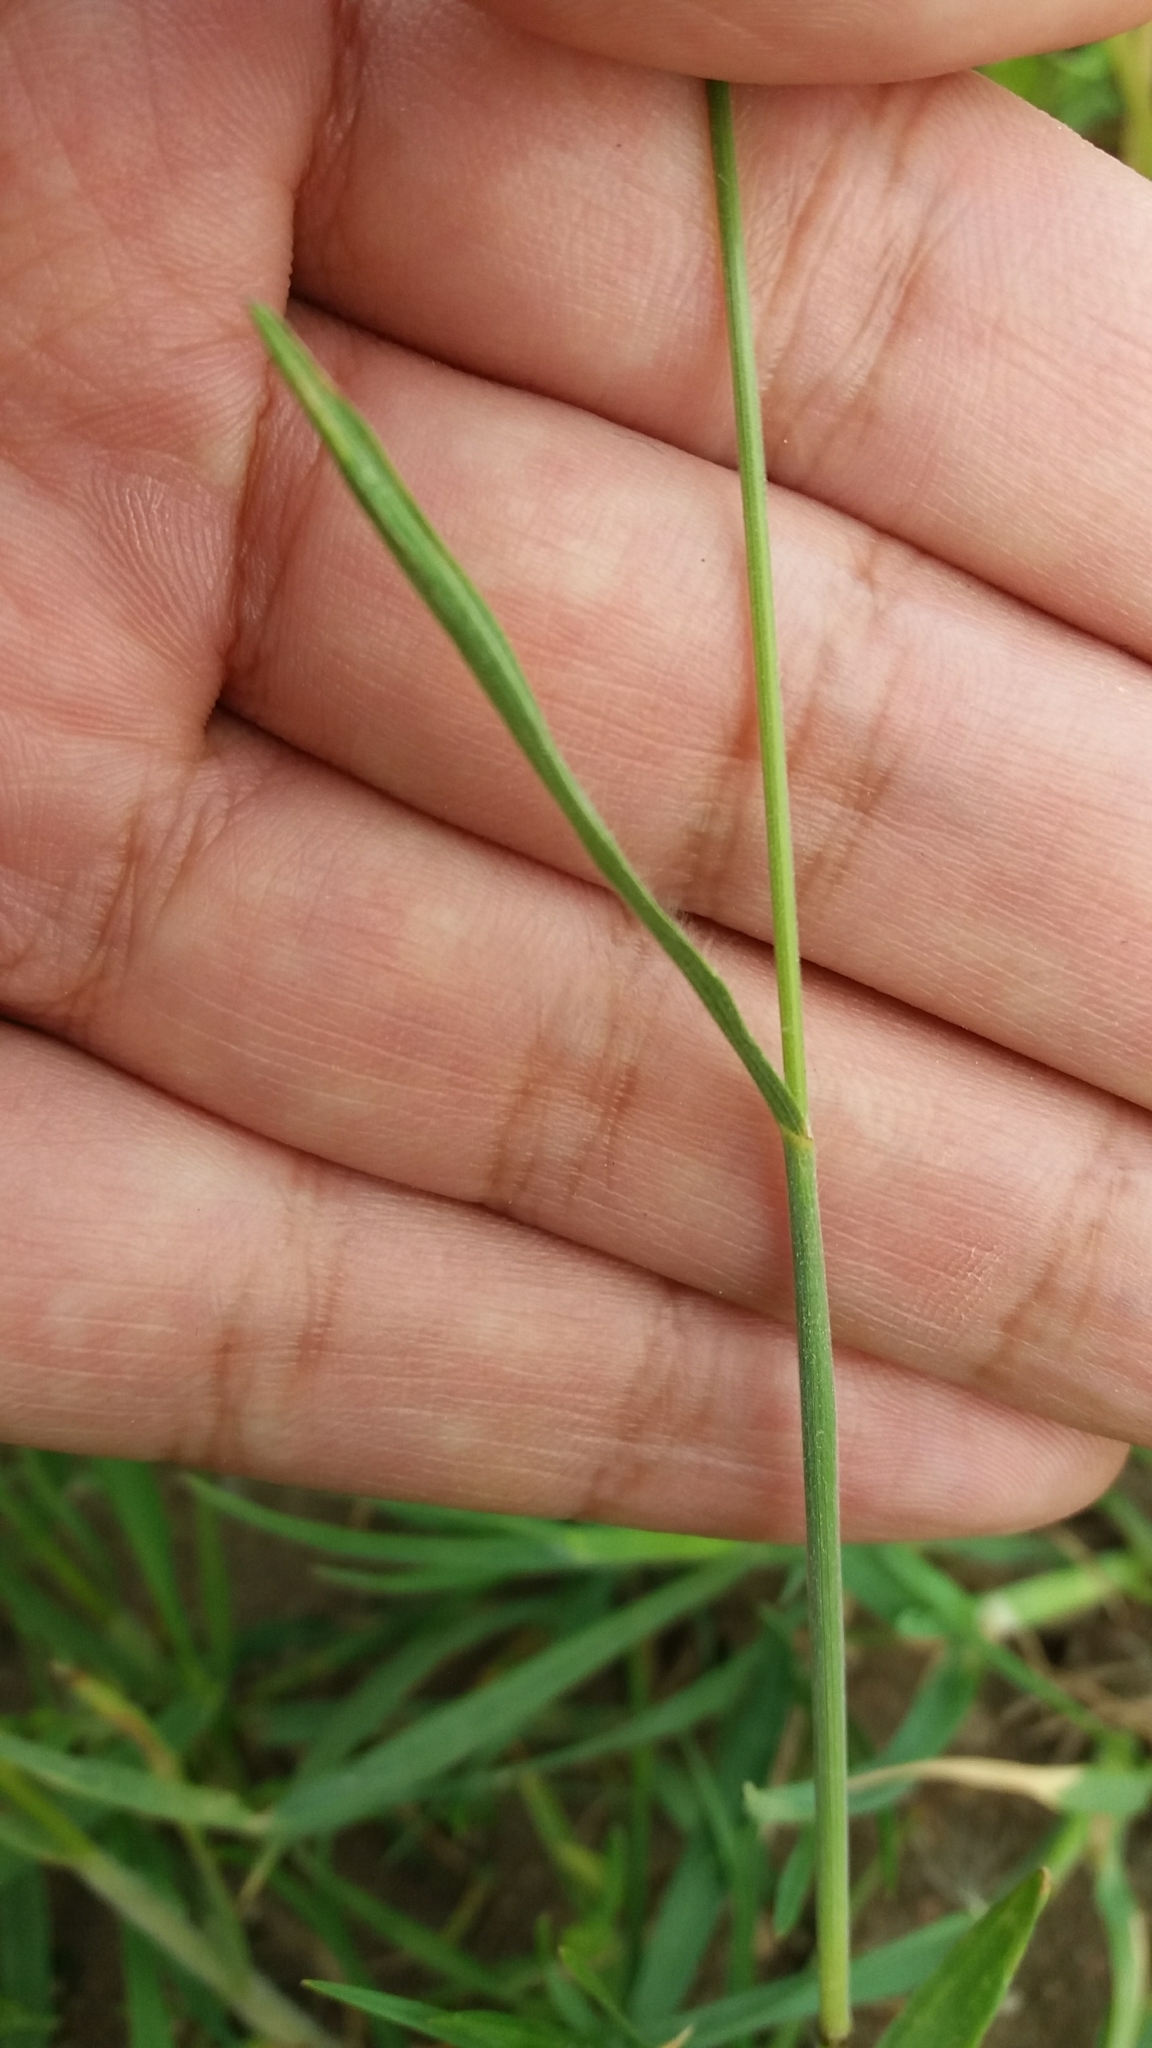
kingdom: Plantae
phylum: Tracheophyta
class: Liliopsida
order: Poales
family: Poaceae
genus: Bromus
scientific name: Bromus hordeaceus
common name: Soft brome
